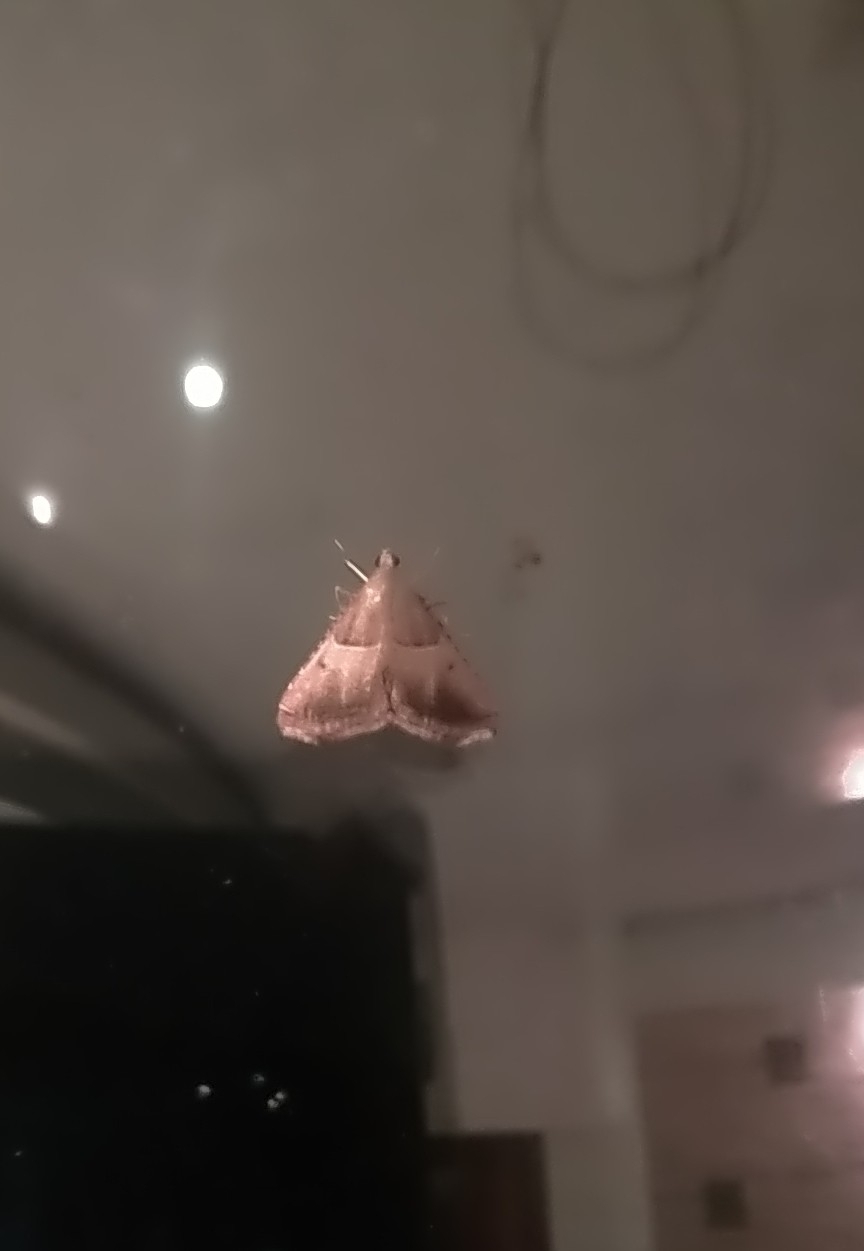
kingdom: Animalia
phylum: Arthropoda
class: Insecta
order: Lepidoptera
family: Pyralidae
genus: Endotricha
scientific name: Endotricha flammealis
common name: Rosy tabby
